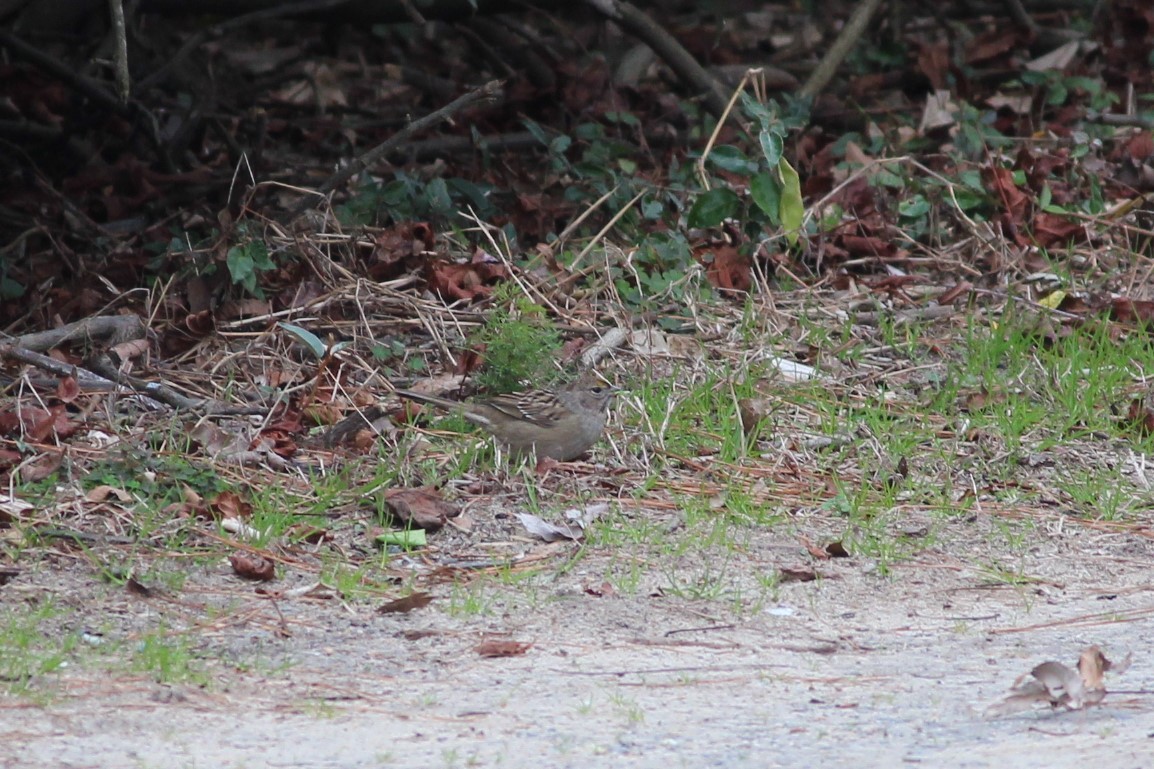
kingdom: Animalia
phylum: Chordata
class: Aves
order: Passeriformes
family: Passerellidae
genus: Zonotrichia
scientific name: Zonotrichia atricapilla
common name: Golden-crowned sparrow
